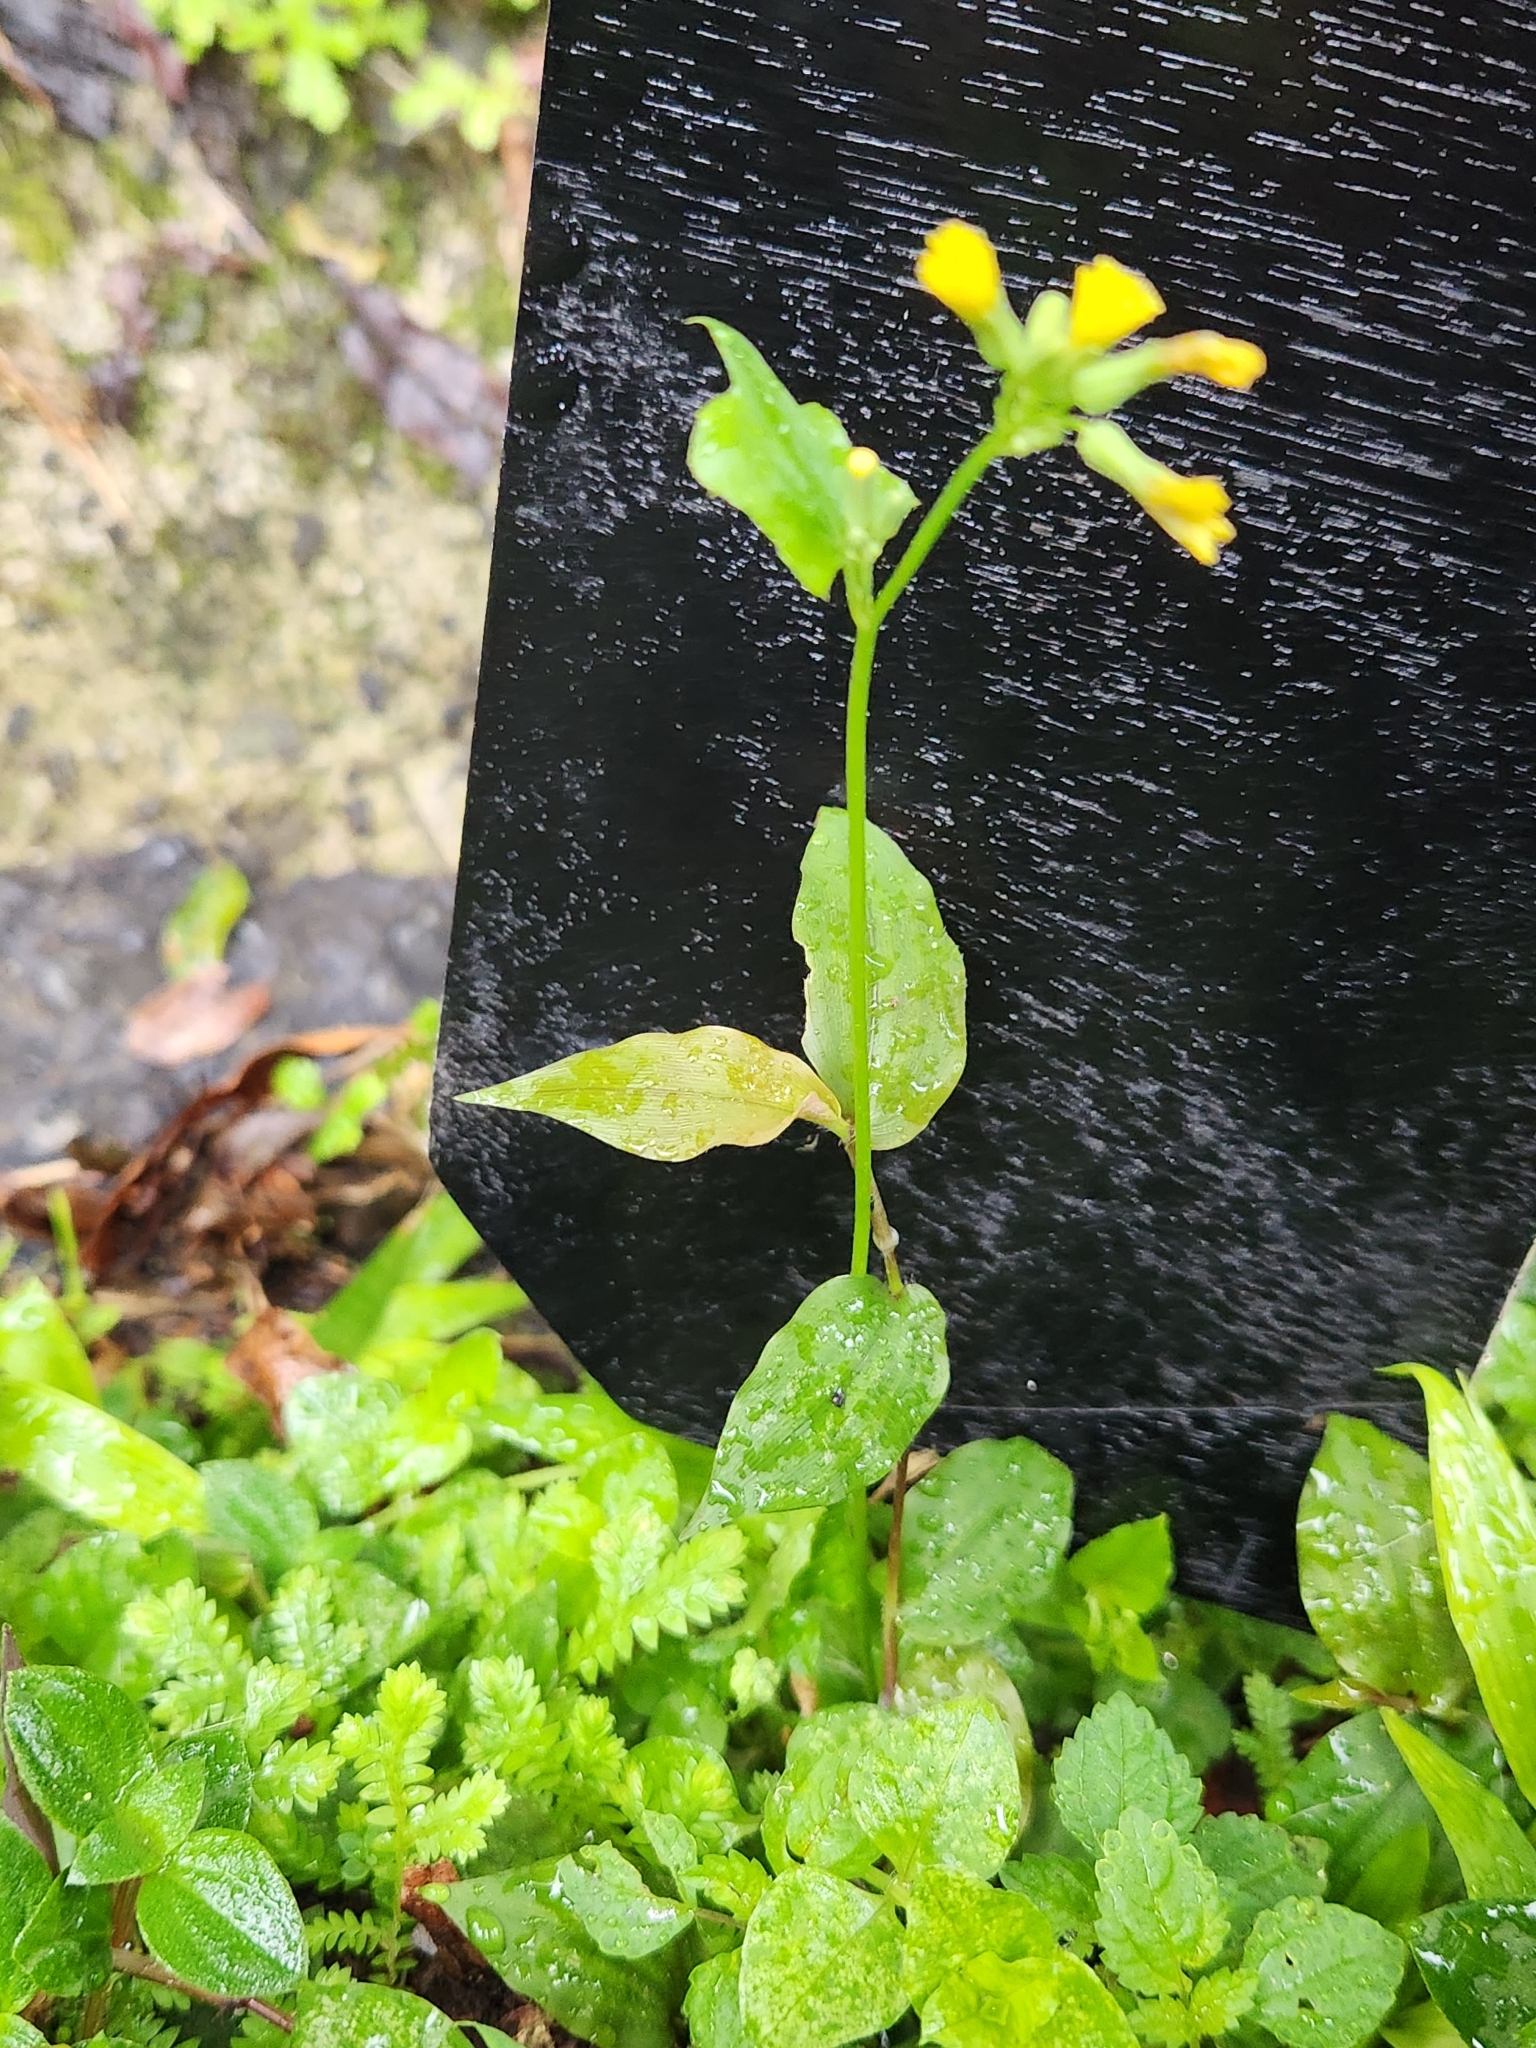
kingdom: Plantae
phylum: Tracheophyta
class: Magnoliopsida
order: Asterales
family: Asteraceae
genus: Youngia
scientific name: Youngia japonica
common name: Oriental false hawksbeard
